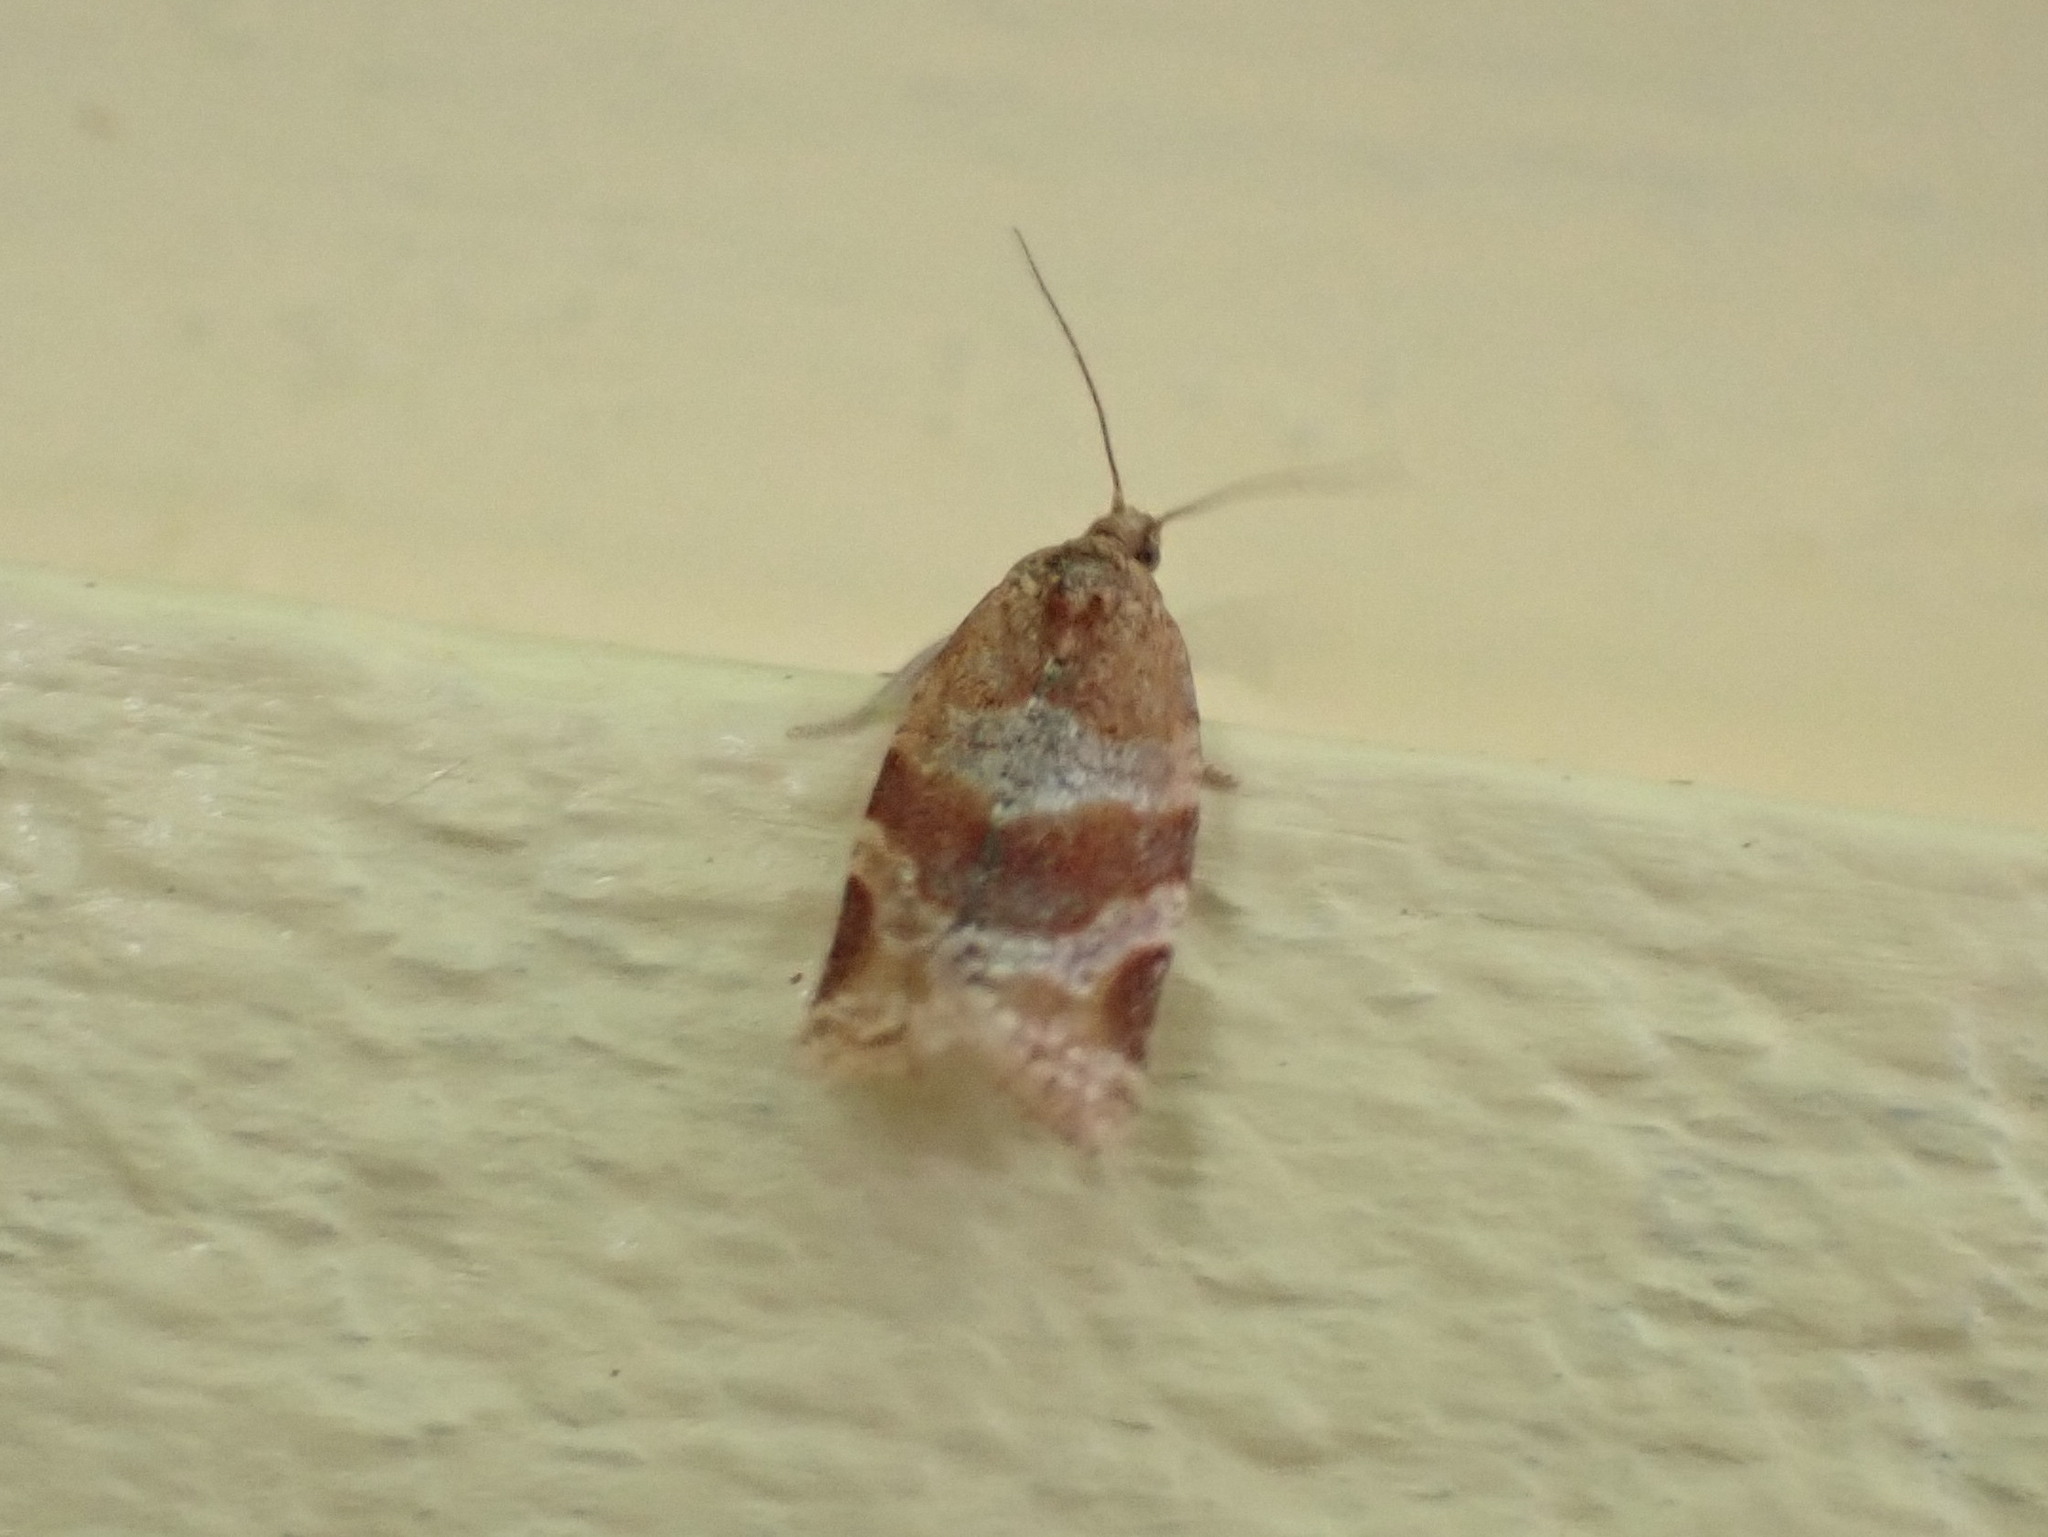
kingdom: Animalia
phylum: Arthropoda
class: Insecta
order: Lepidoptera
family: Tortricidae
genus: Argyrotaenia
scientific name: Argyrotaenia pinatubana
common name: Pine tube moth
